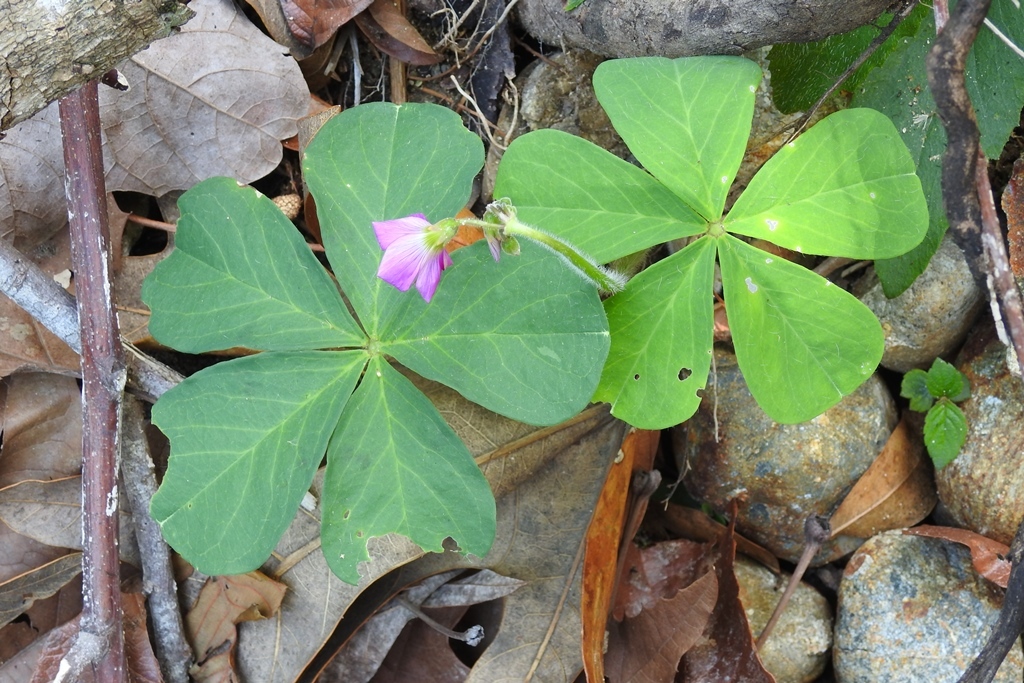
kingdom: Plantae
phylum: Tracheophyta
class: Magnoliopsida
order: Oxalidales
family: Oxalidaceae
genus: Oxalis
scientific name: Oxalis nelsonii
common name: Sorrel
